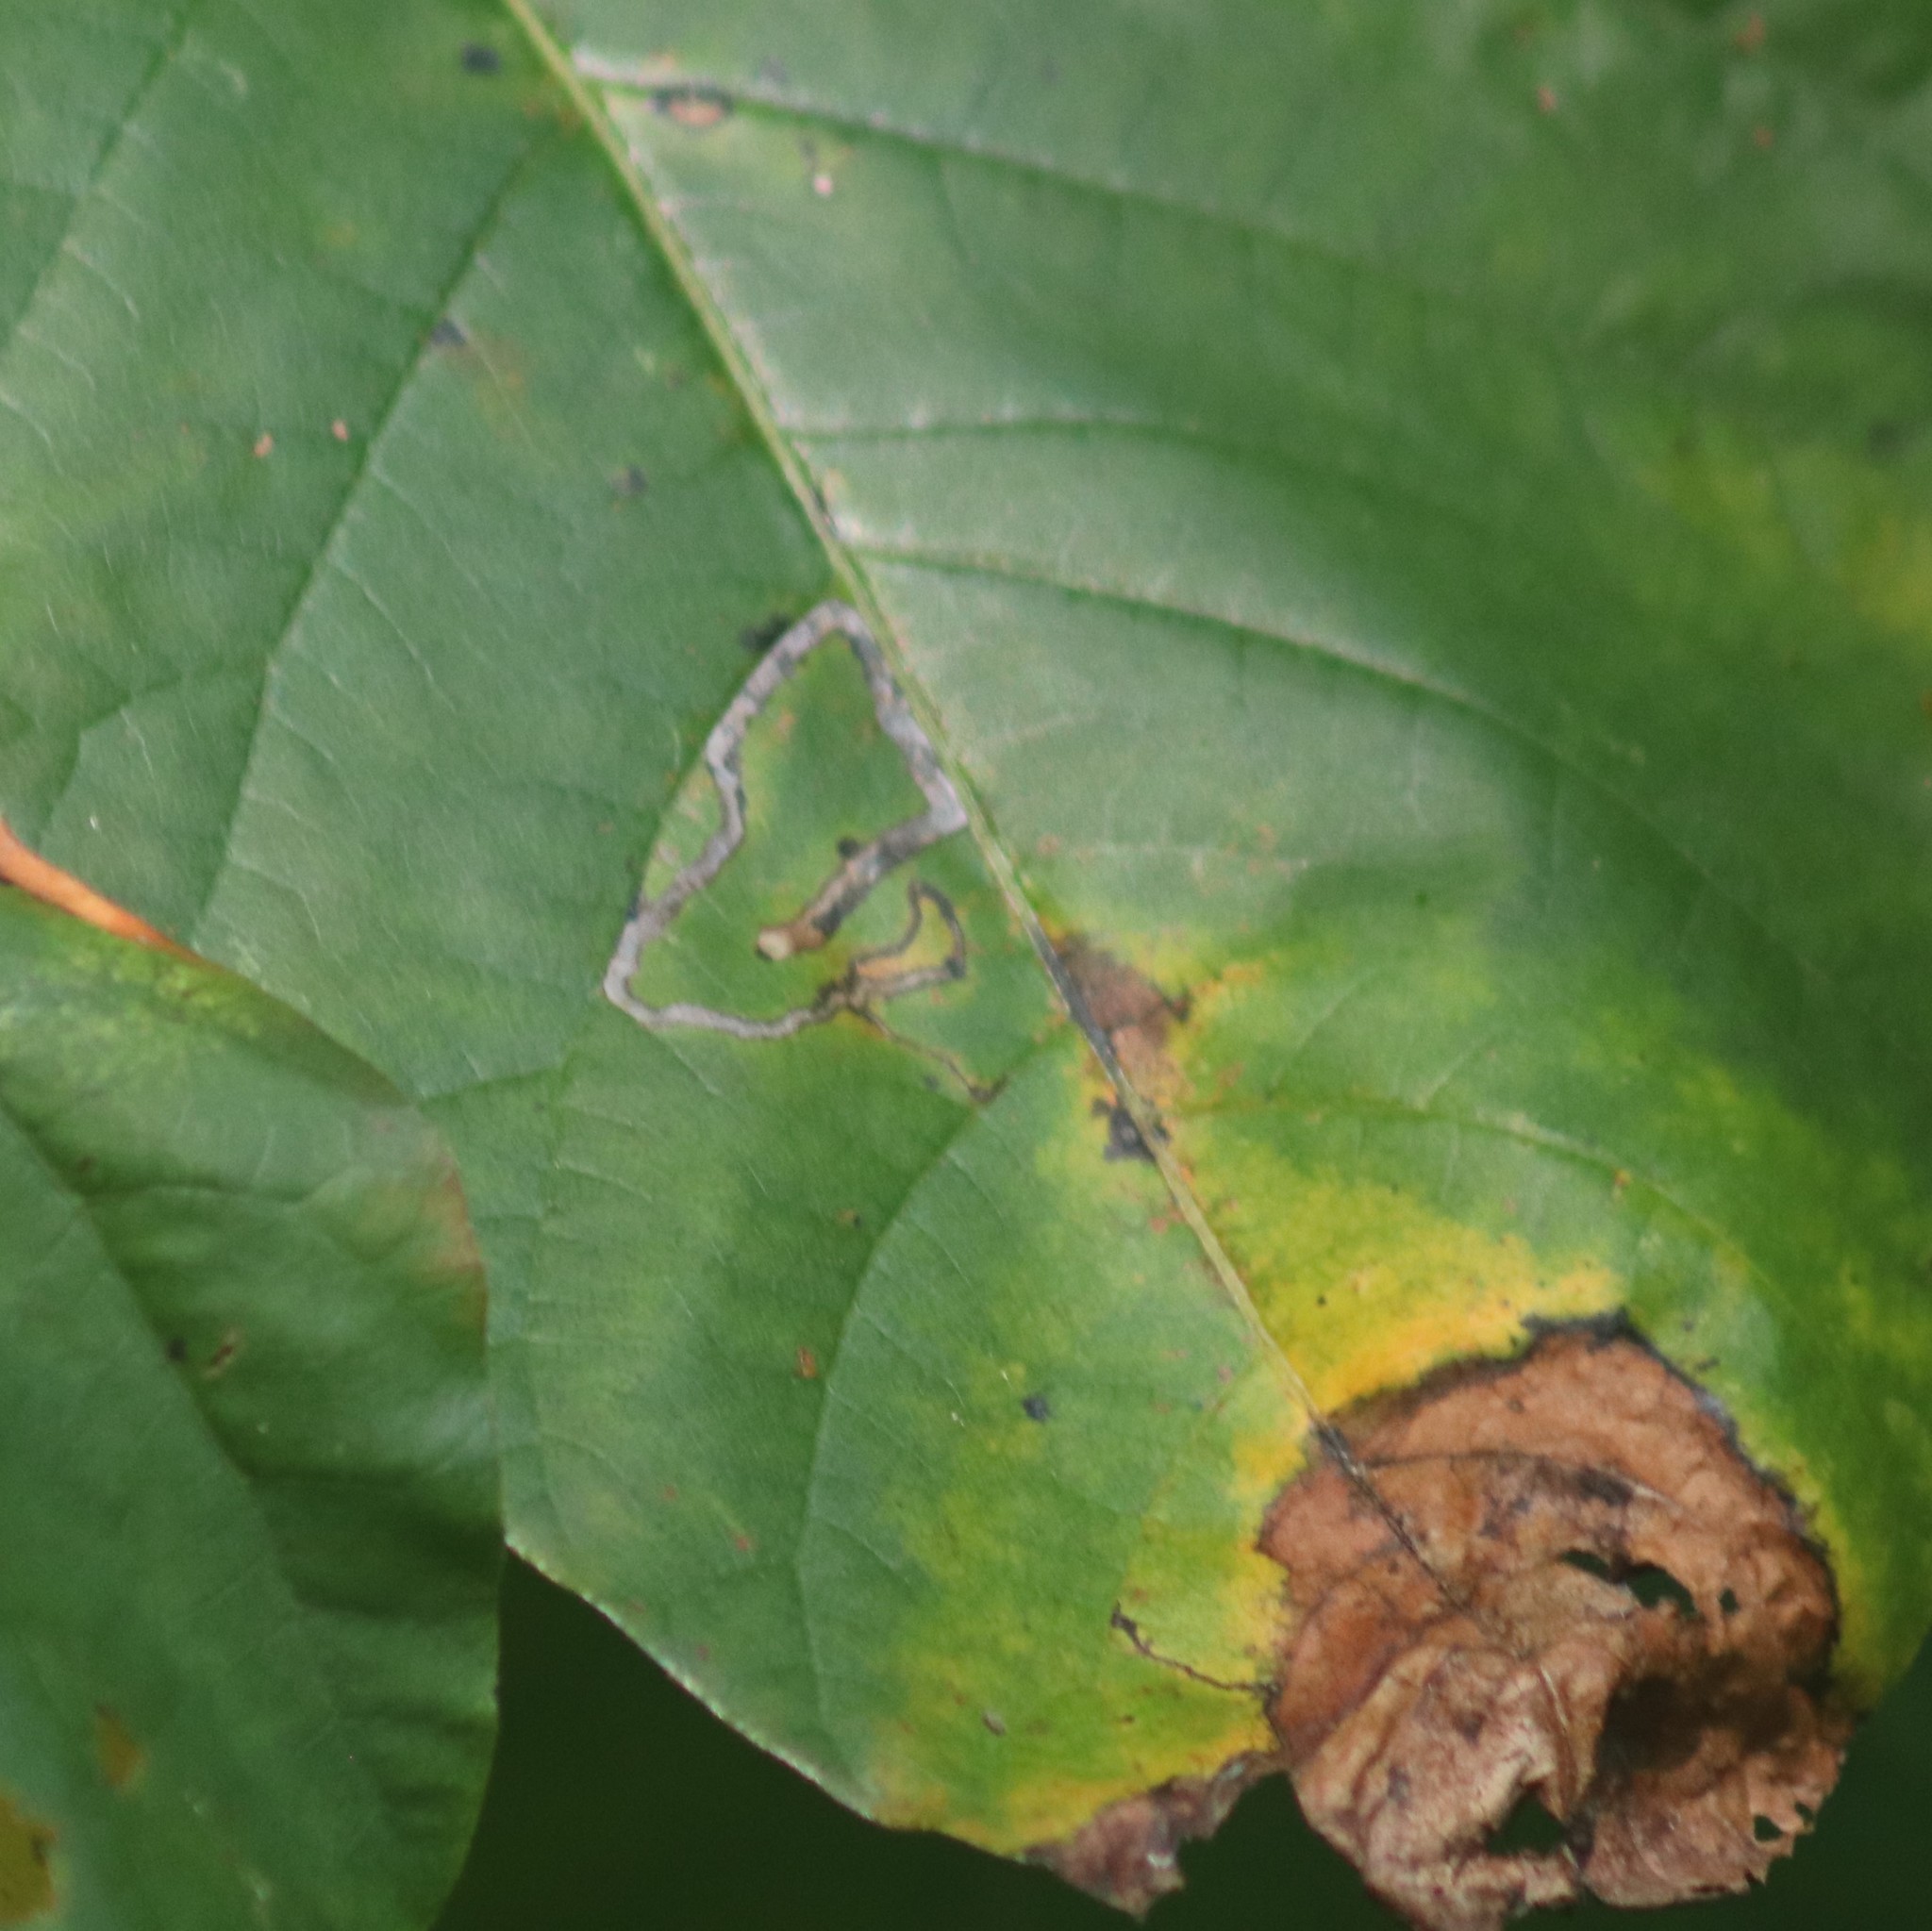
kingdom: Animalia
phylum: Arthropoda
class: Insecta
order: Lepidoptera
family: Nepticulidae
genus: Stigmella
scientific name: Stigmella rhoifoliella
